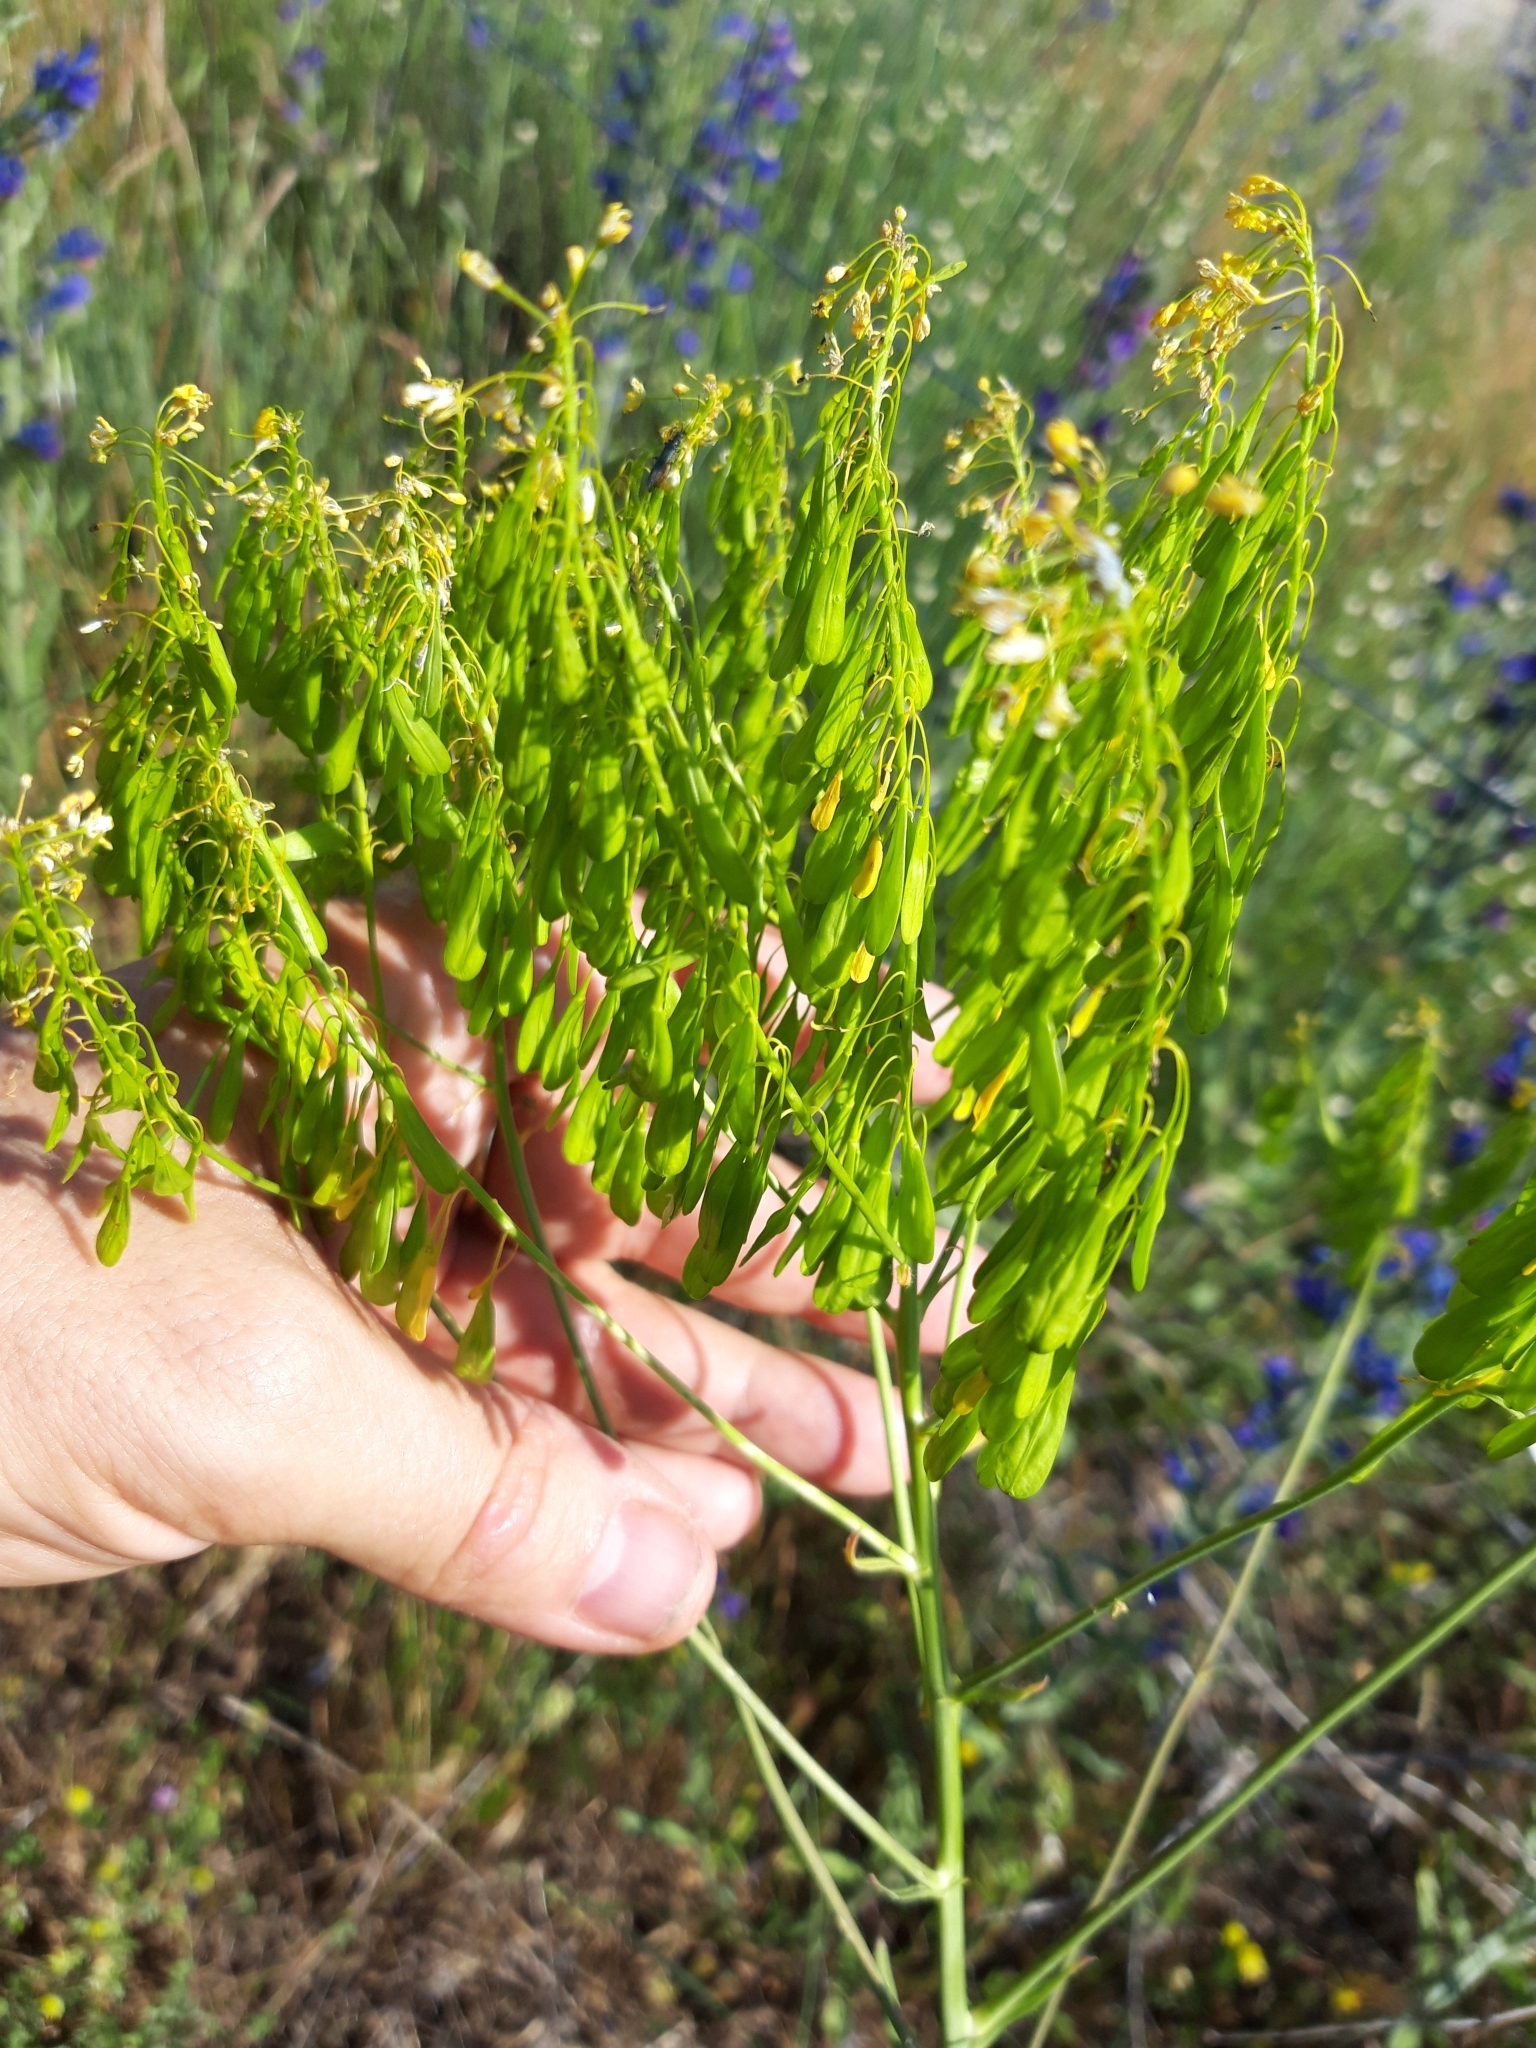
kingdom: Plantae
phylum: Tracheophyta
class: Magnoliopsida
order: Brassicales
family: Brassicaceae
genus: Isatis
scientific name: Isatis tinctoria
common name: Woad
